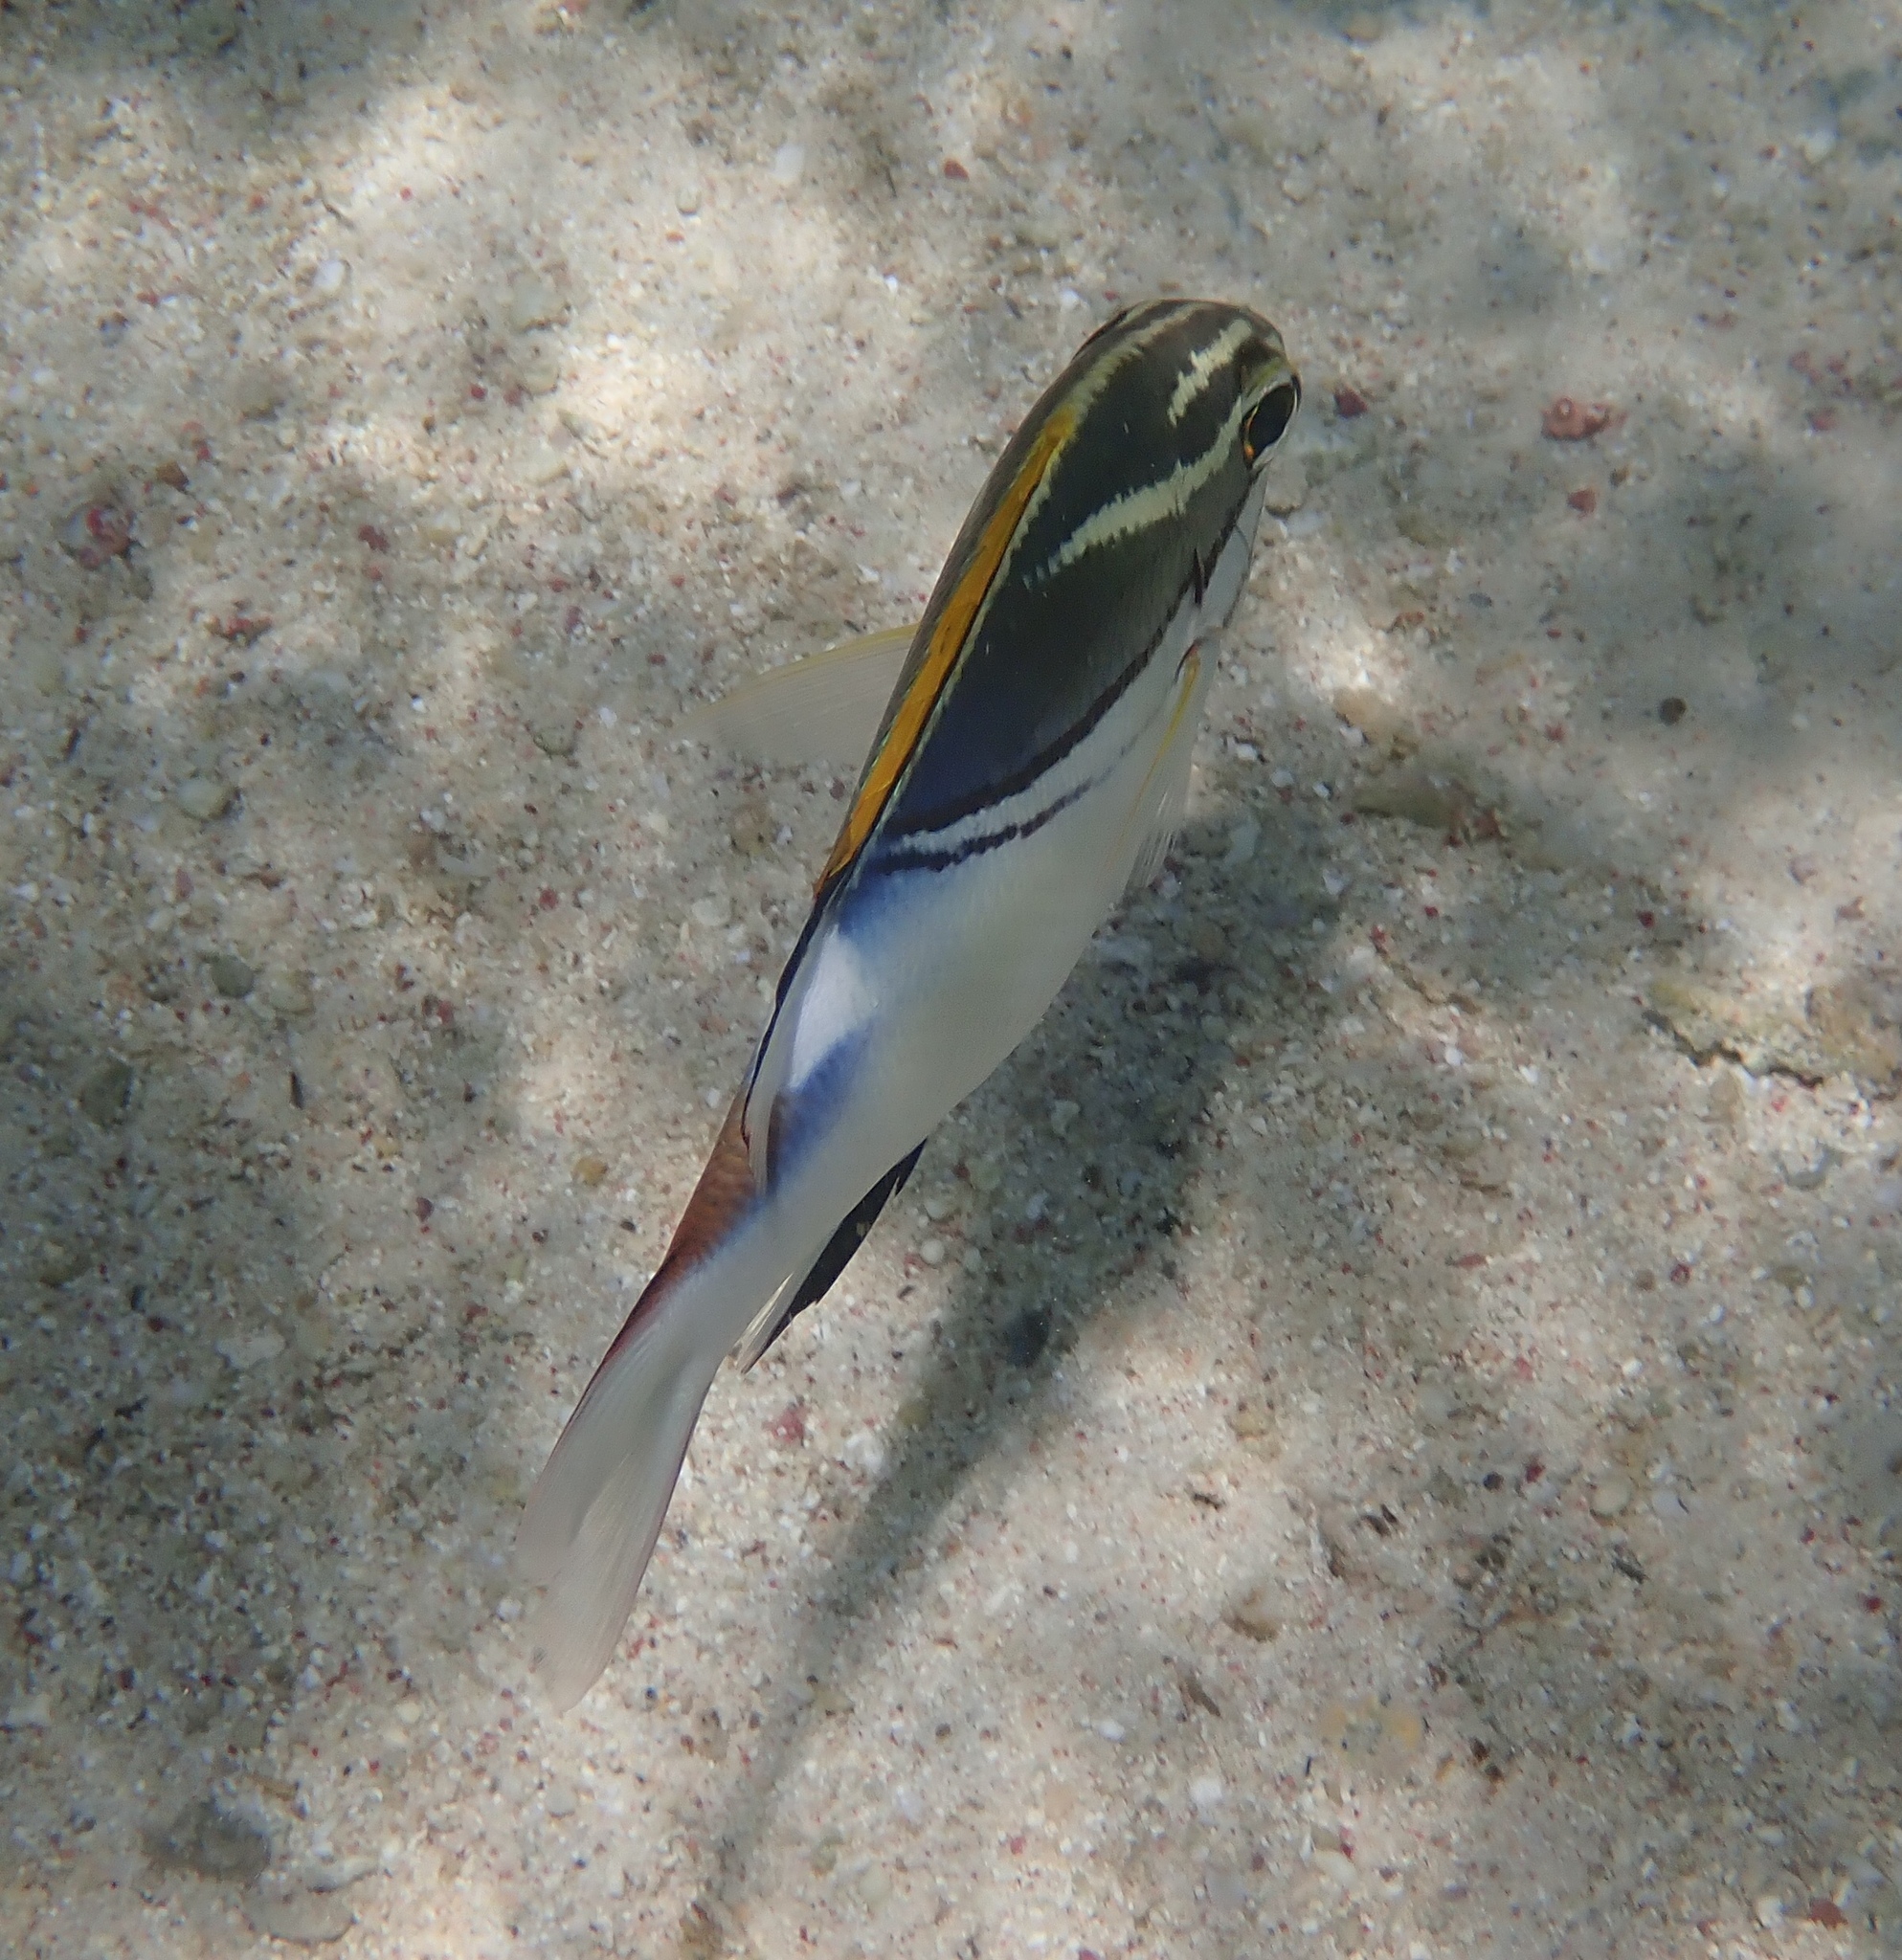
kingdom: Animalia
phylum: Chordata
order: Perciformes
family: Nemipteridae
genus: Scolopsis
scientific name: Scolopsis bilineata
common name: Two-lined monocle bream
